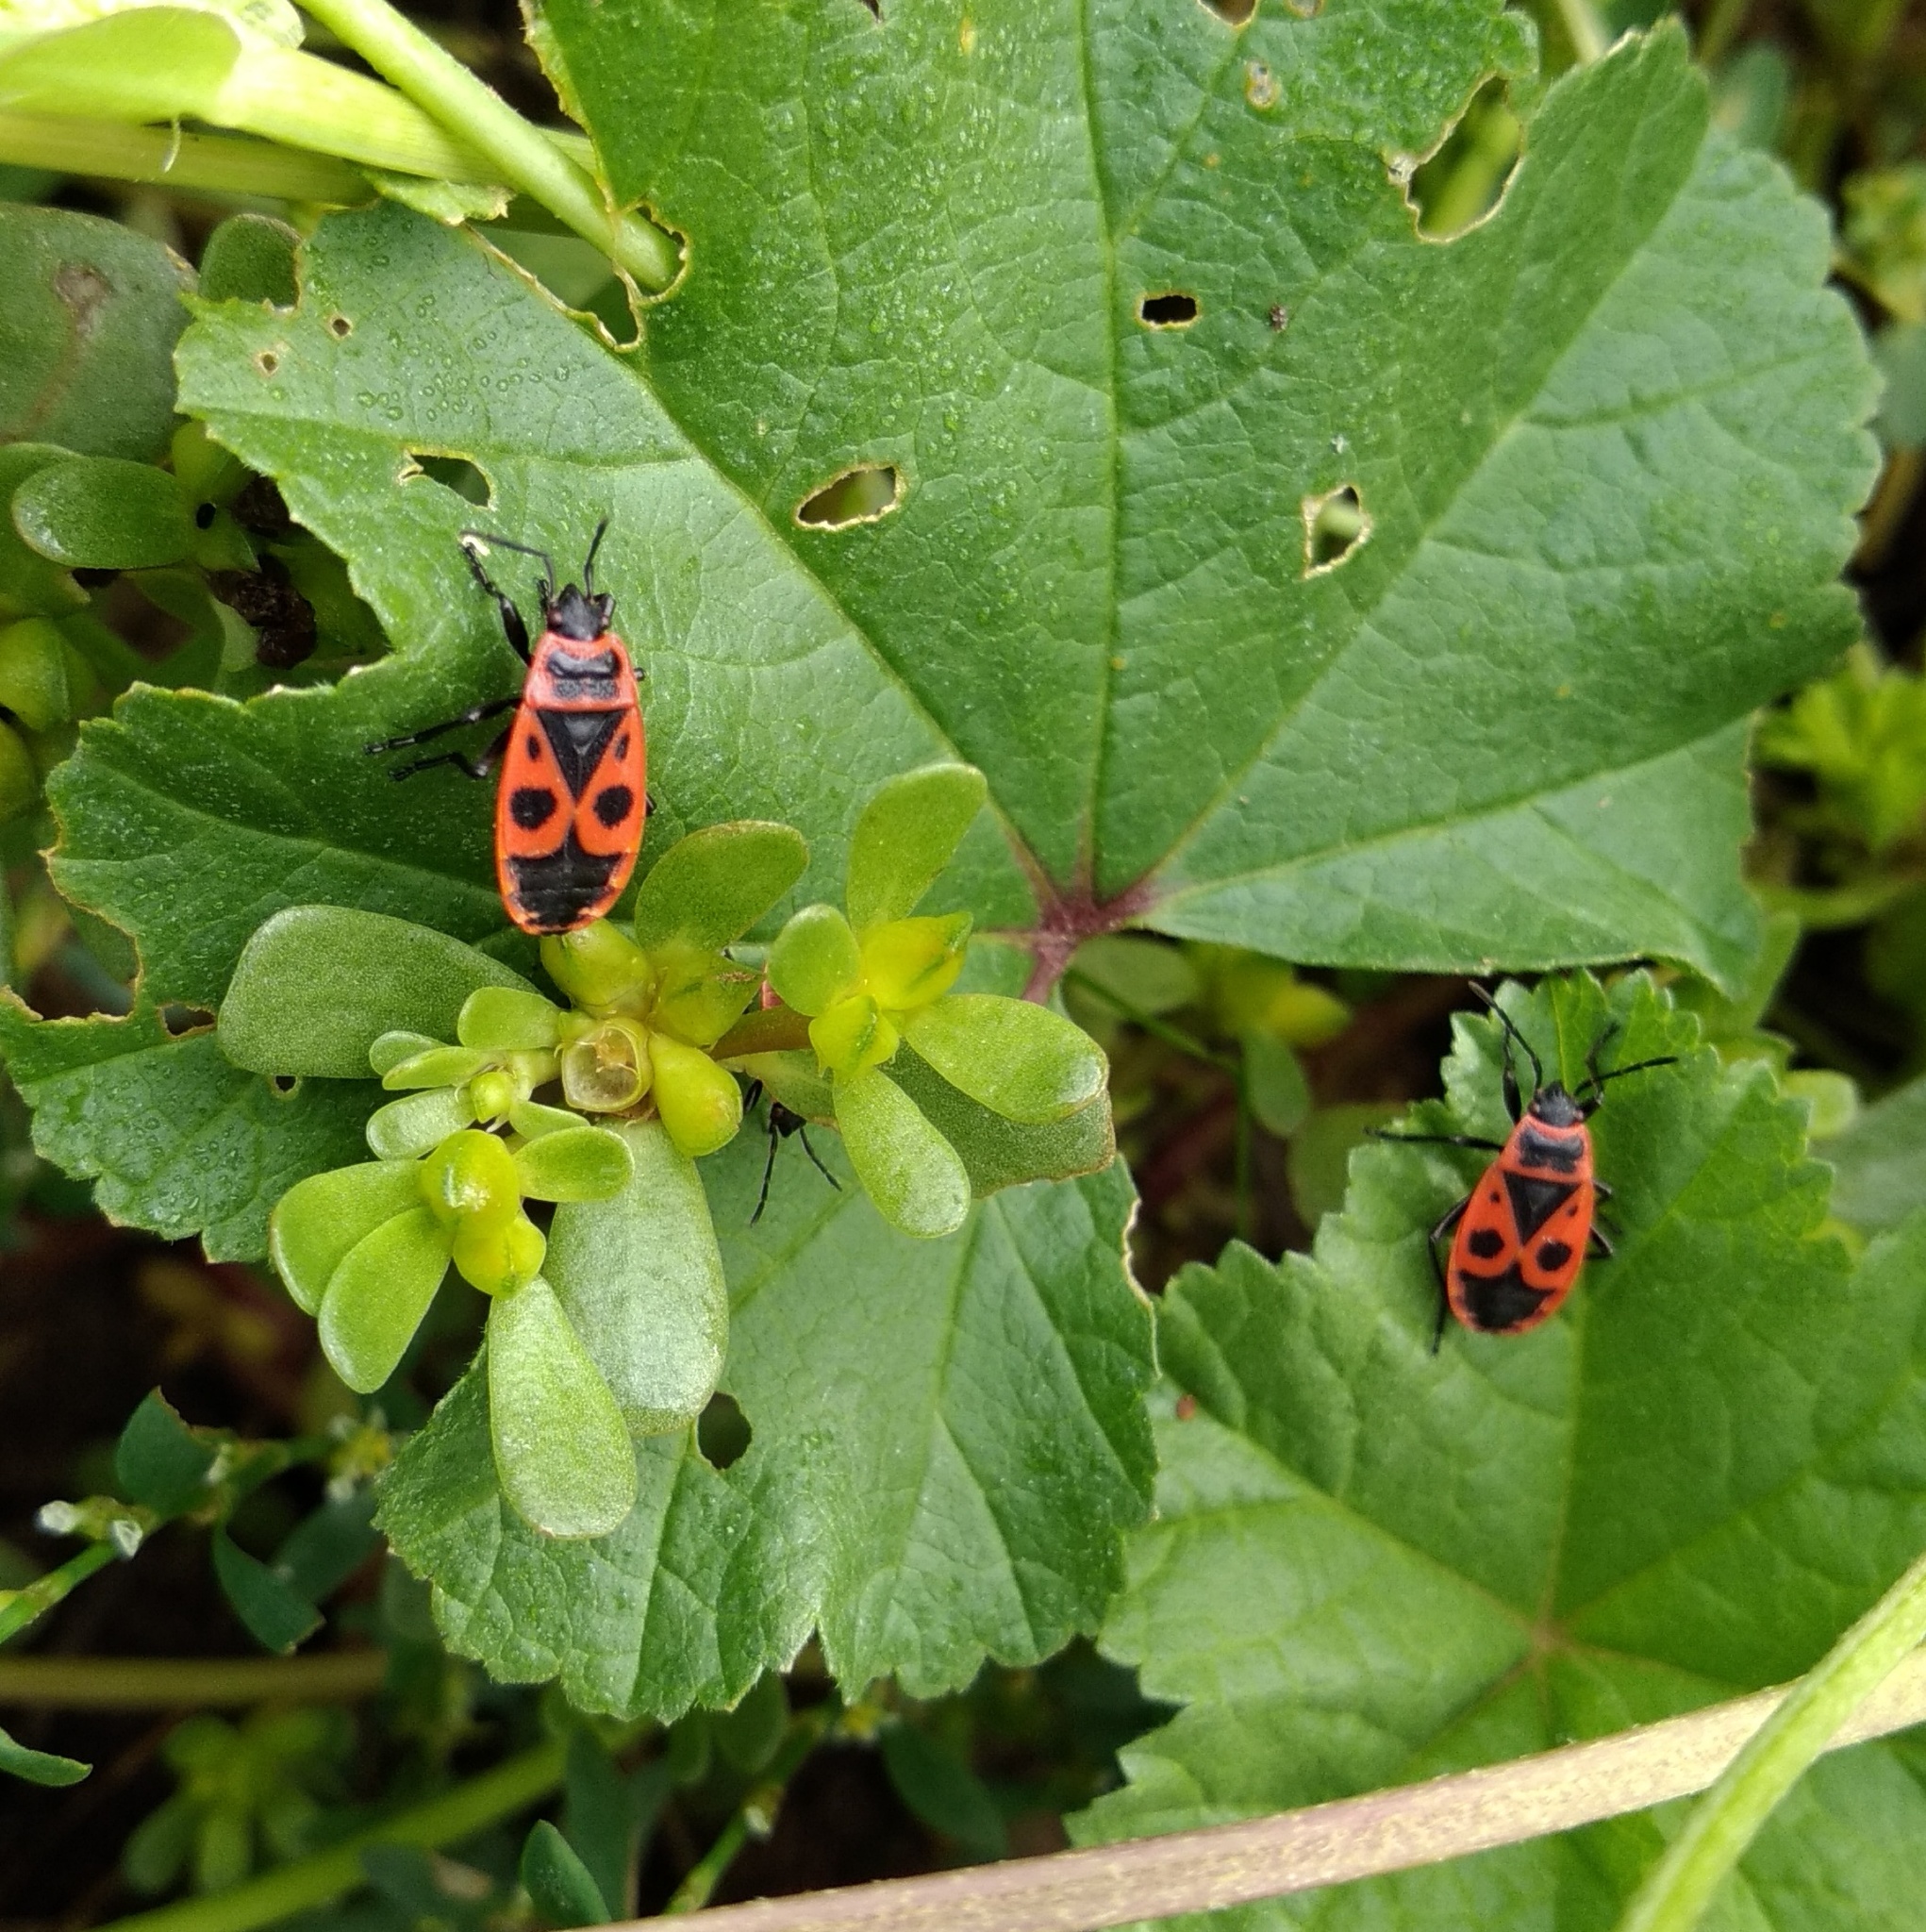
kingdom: Animalia
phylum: Arthropoda
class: Insecta
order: Hemiptera
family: Pyrrhocoridae
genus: Pyrrhocoris
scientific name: Pyrrhocoris apterus
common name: Firebug
